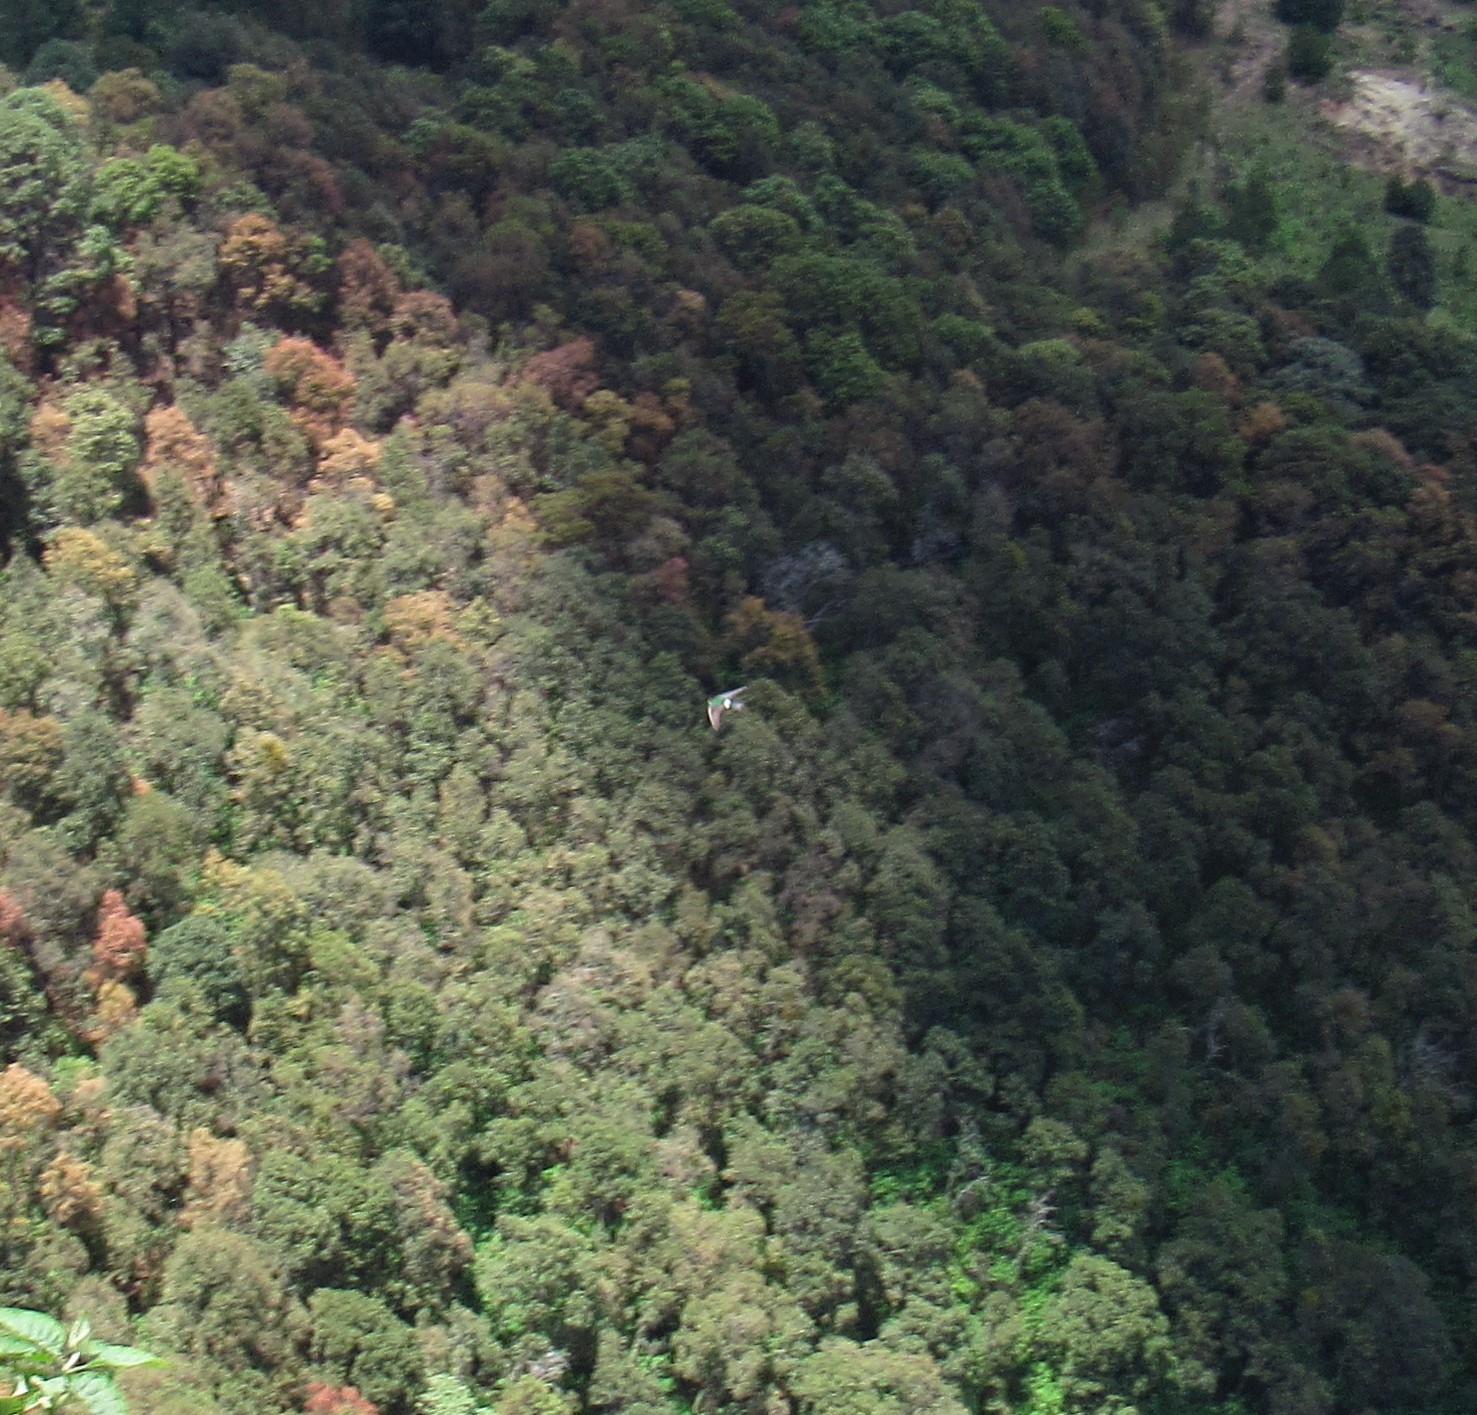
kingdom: Animalia
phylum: Chordata
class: Aves
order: Passeriformes
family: Hirundinidae
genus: Tachycineta
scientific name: Tachycineta thalassina
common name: Violet-green swallow
